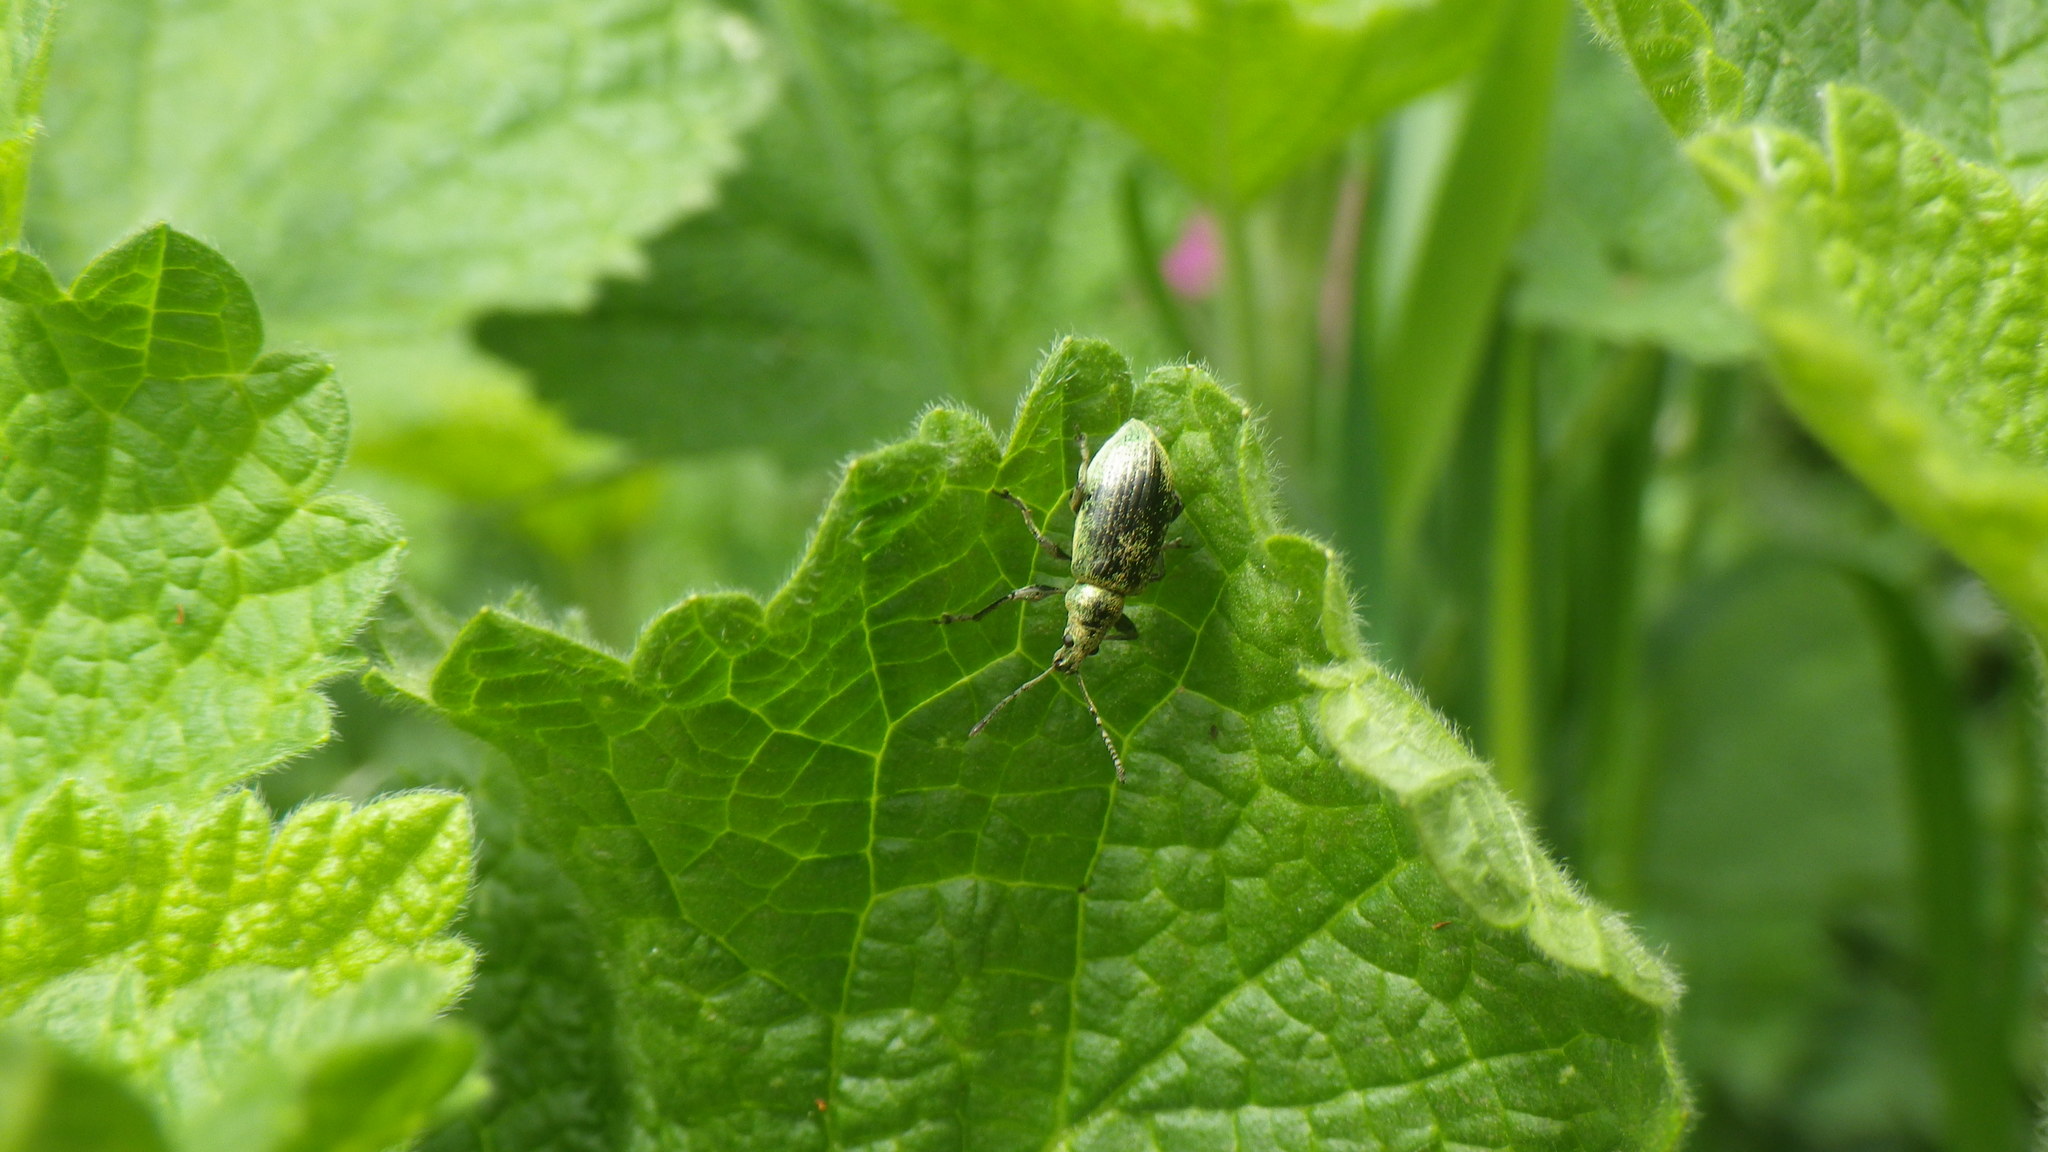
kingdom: Animalia
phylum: Arthropoda
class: Insecta
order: Coleoptera
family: Curculionidae
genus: Phyllobius
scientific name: Phyllobius pomaceus
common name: Green nettle weevil
